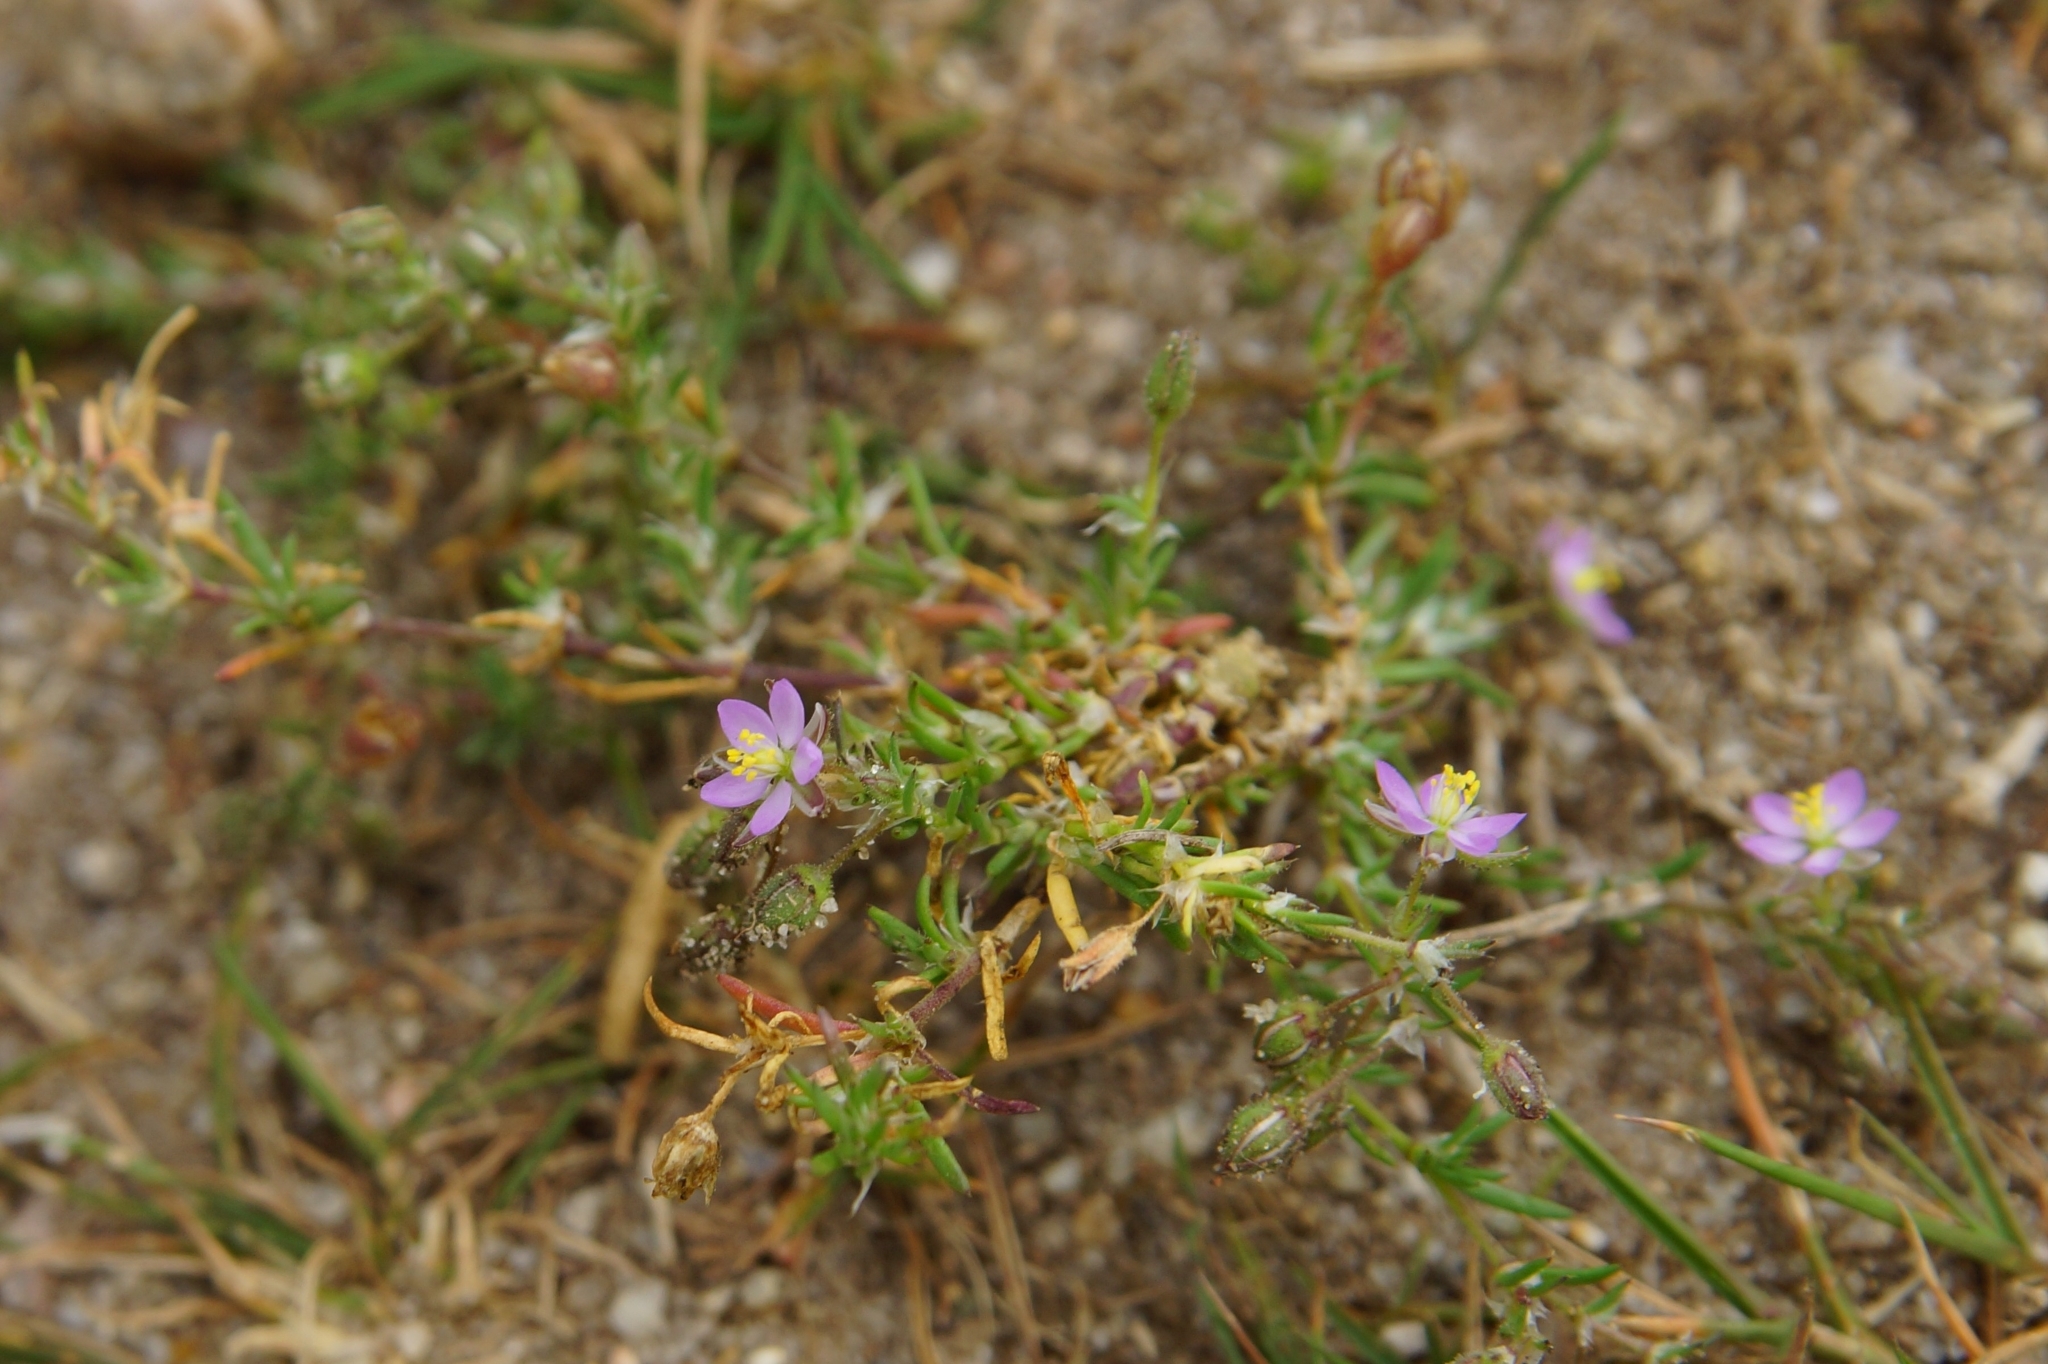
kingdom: Plantae
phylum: Tracheophyta
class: Magnoliopsida
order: Caryophyllales
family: Caryophyllaceae
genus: Spergularia
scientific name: Spergularia rubra
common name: Red sand-spurrey
